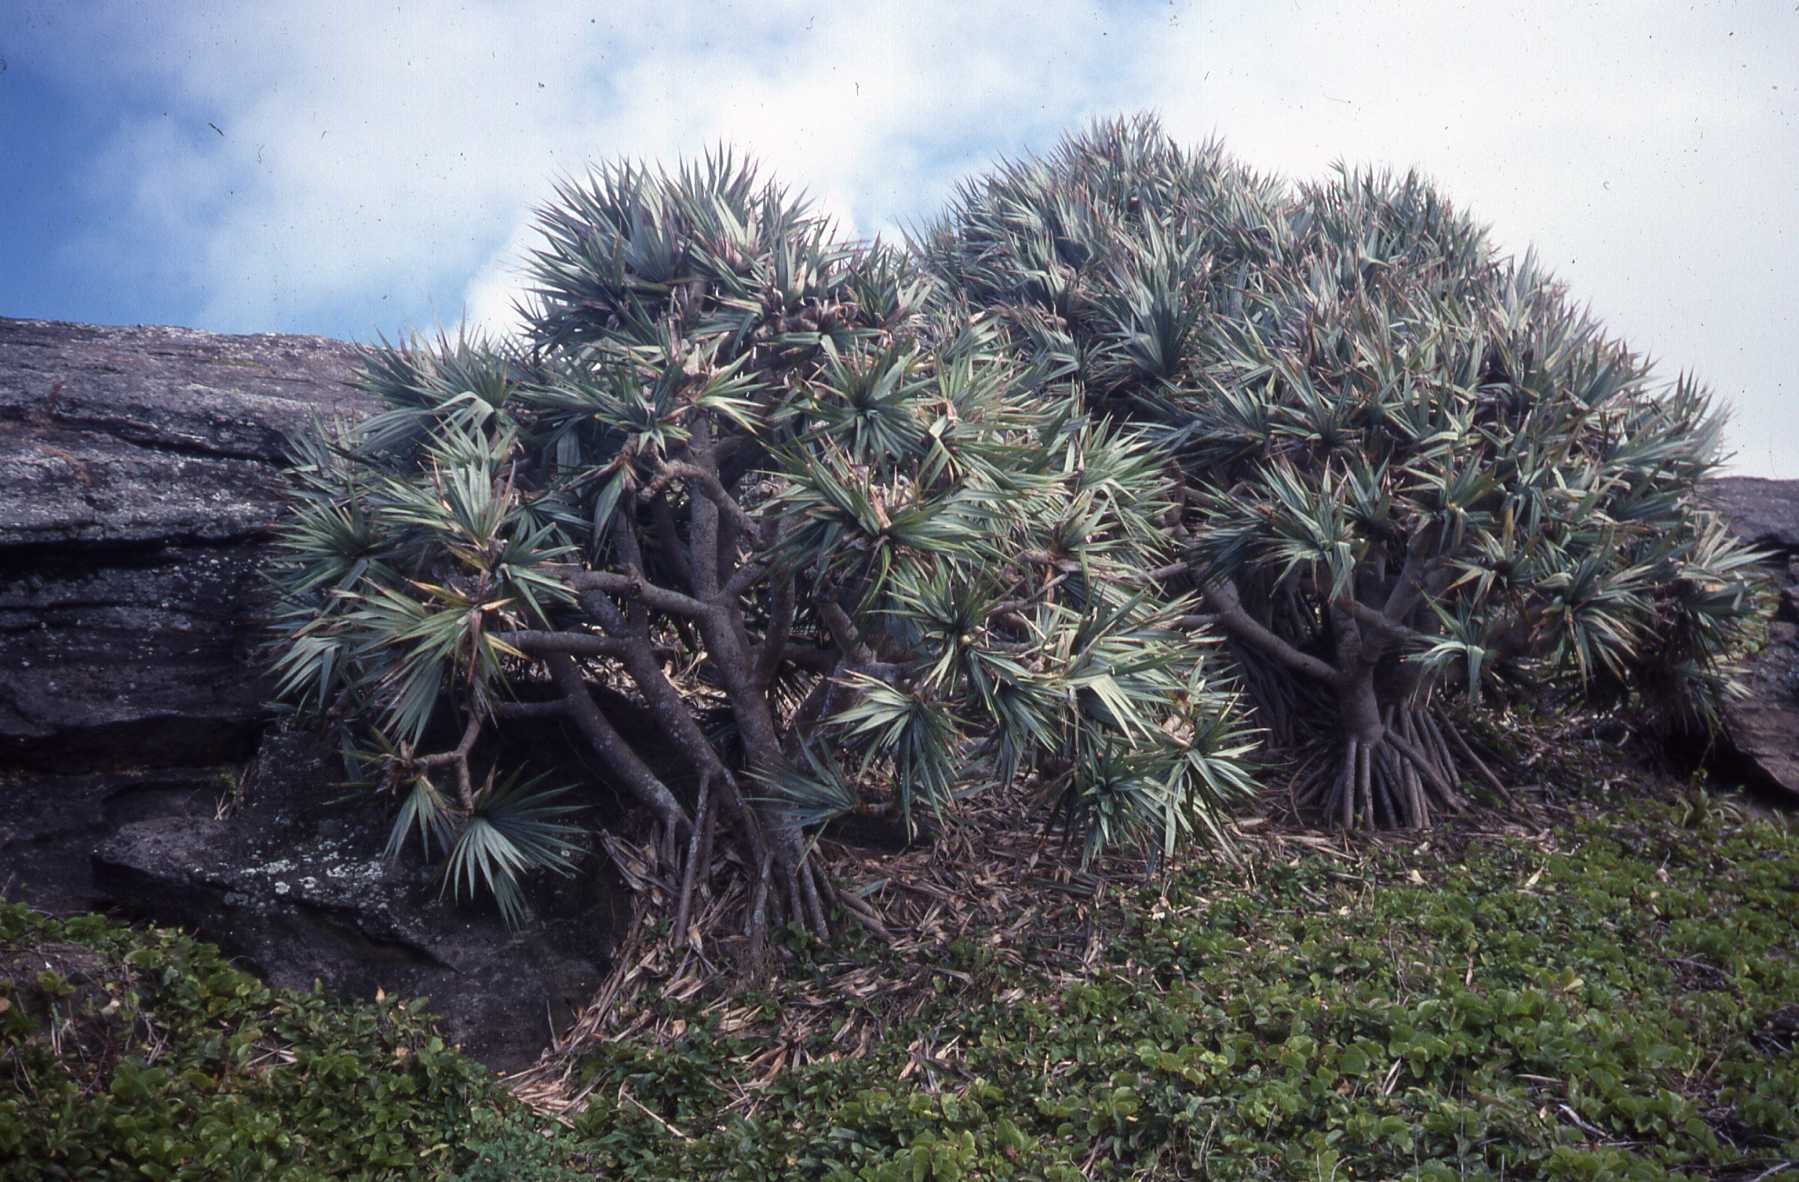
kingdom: Plantae
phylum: Tracheophyta
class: Liliopsida
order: Pandanales
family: Pandanaceae
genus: Pandanus
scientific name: Pandanus vandermeeschii
